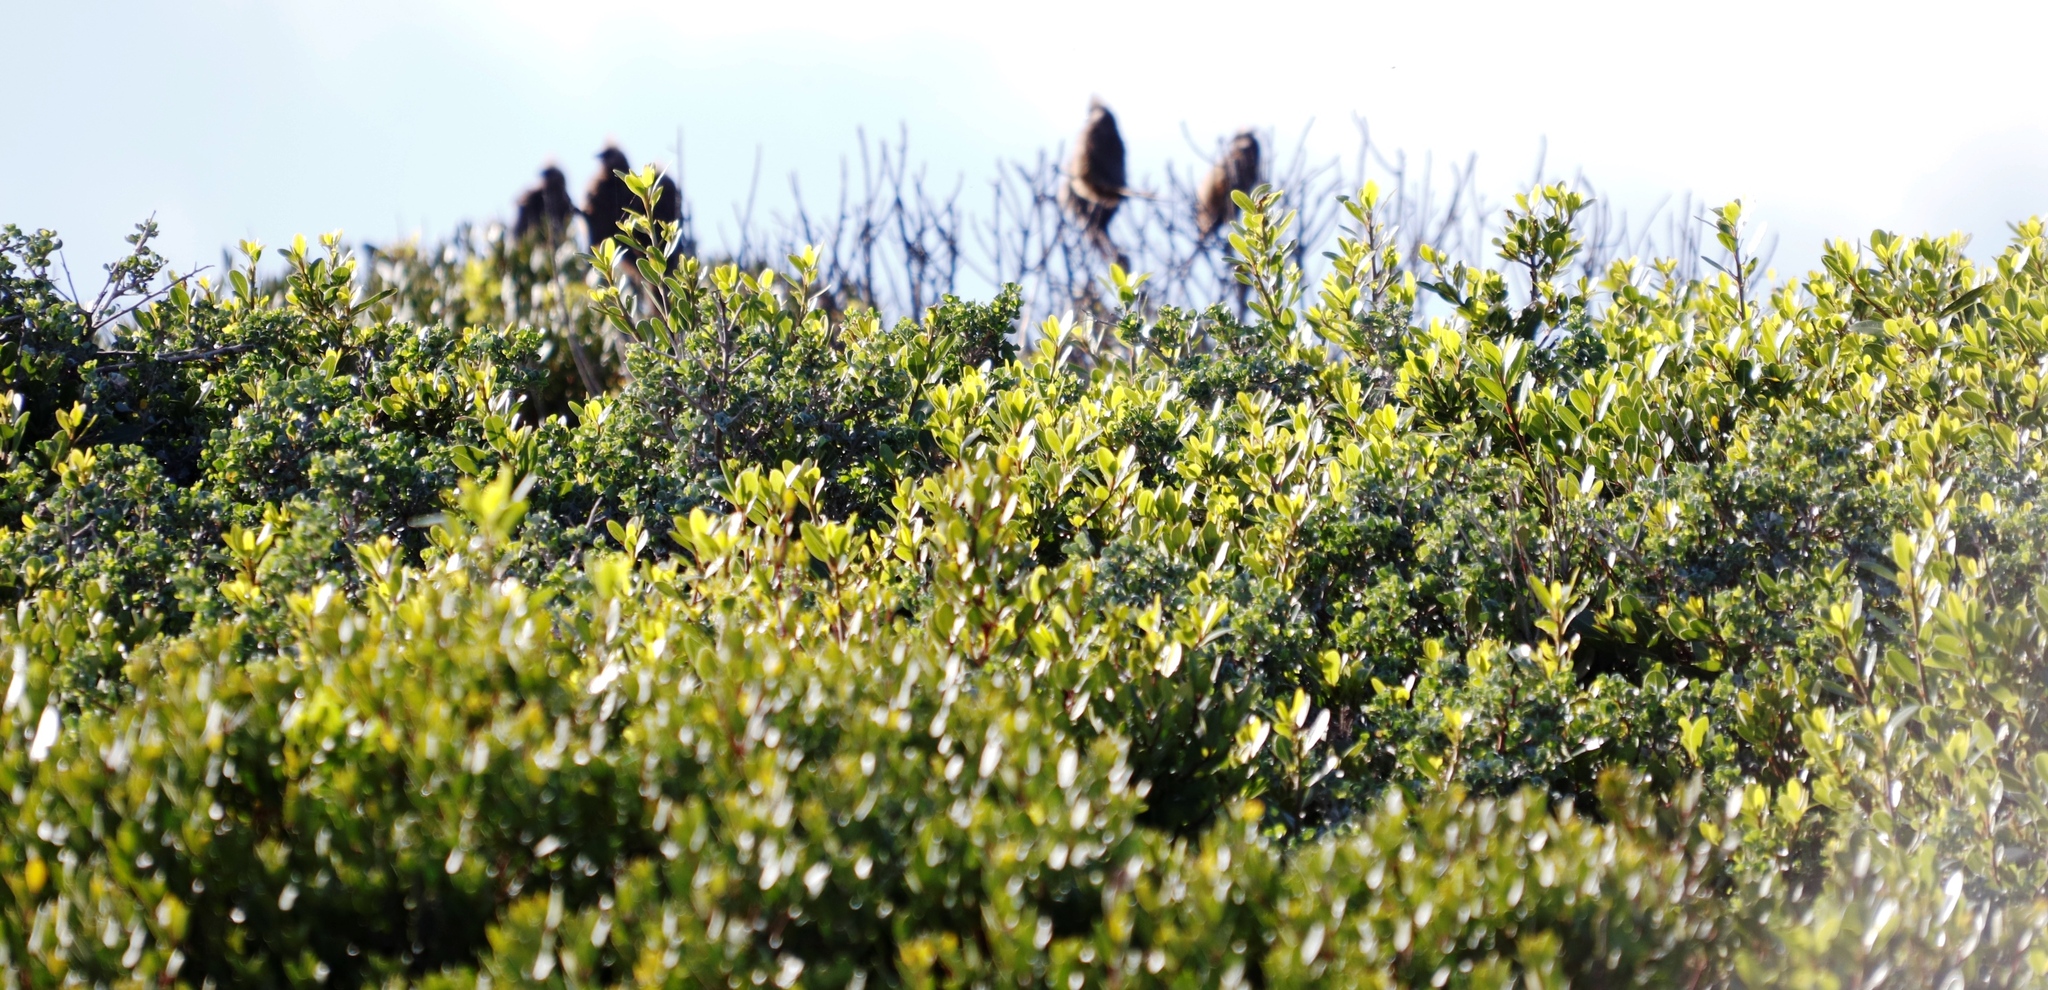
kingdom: Plantae
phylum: Tracheophyta
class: Magnoliopsida
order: Ericales
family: Ebenaceae
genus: Euclea
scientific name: Euclea racemosa
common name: Dune guarri
